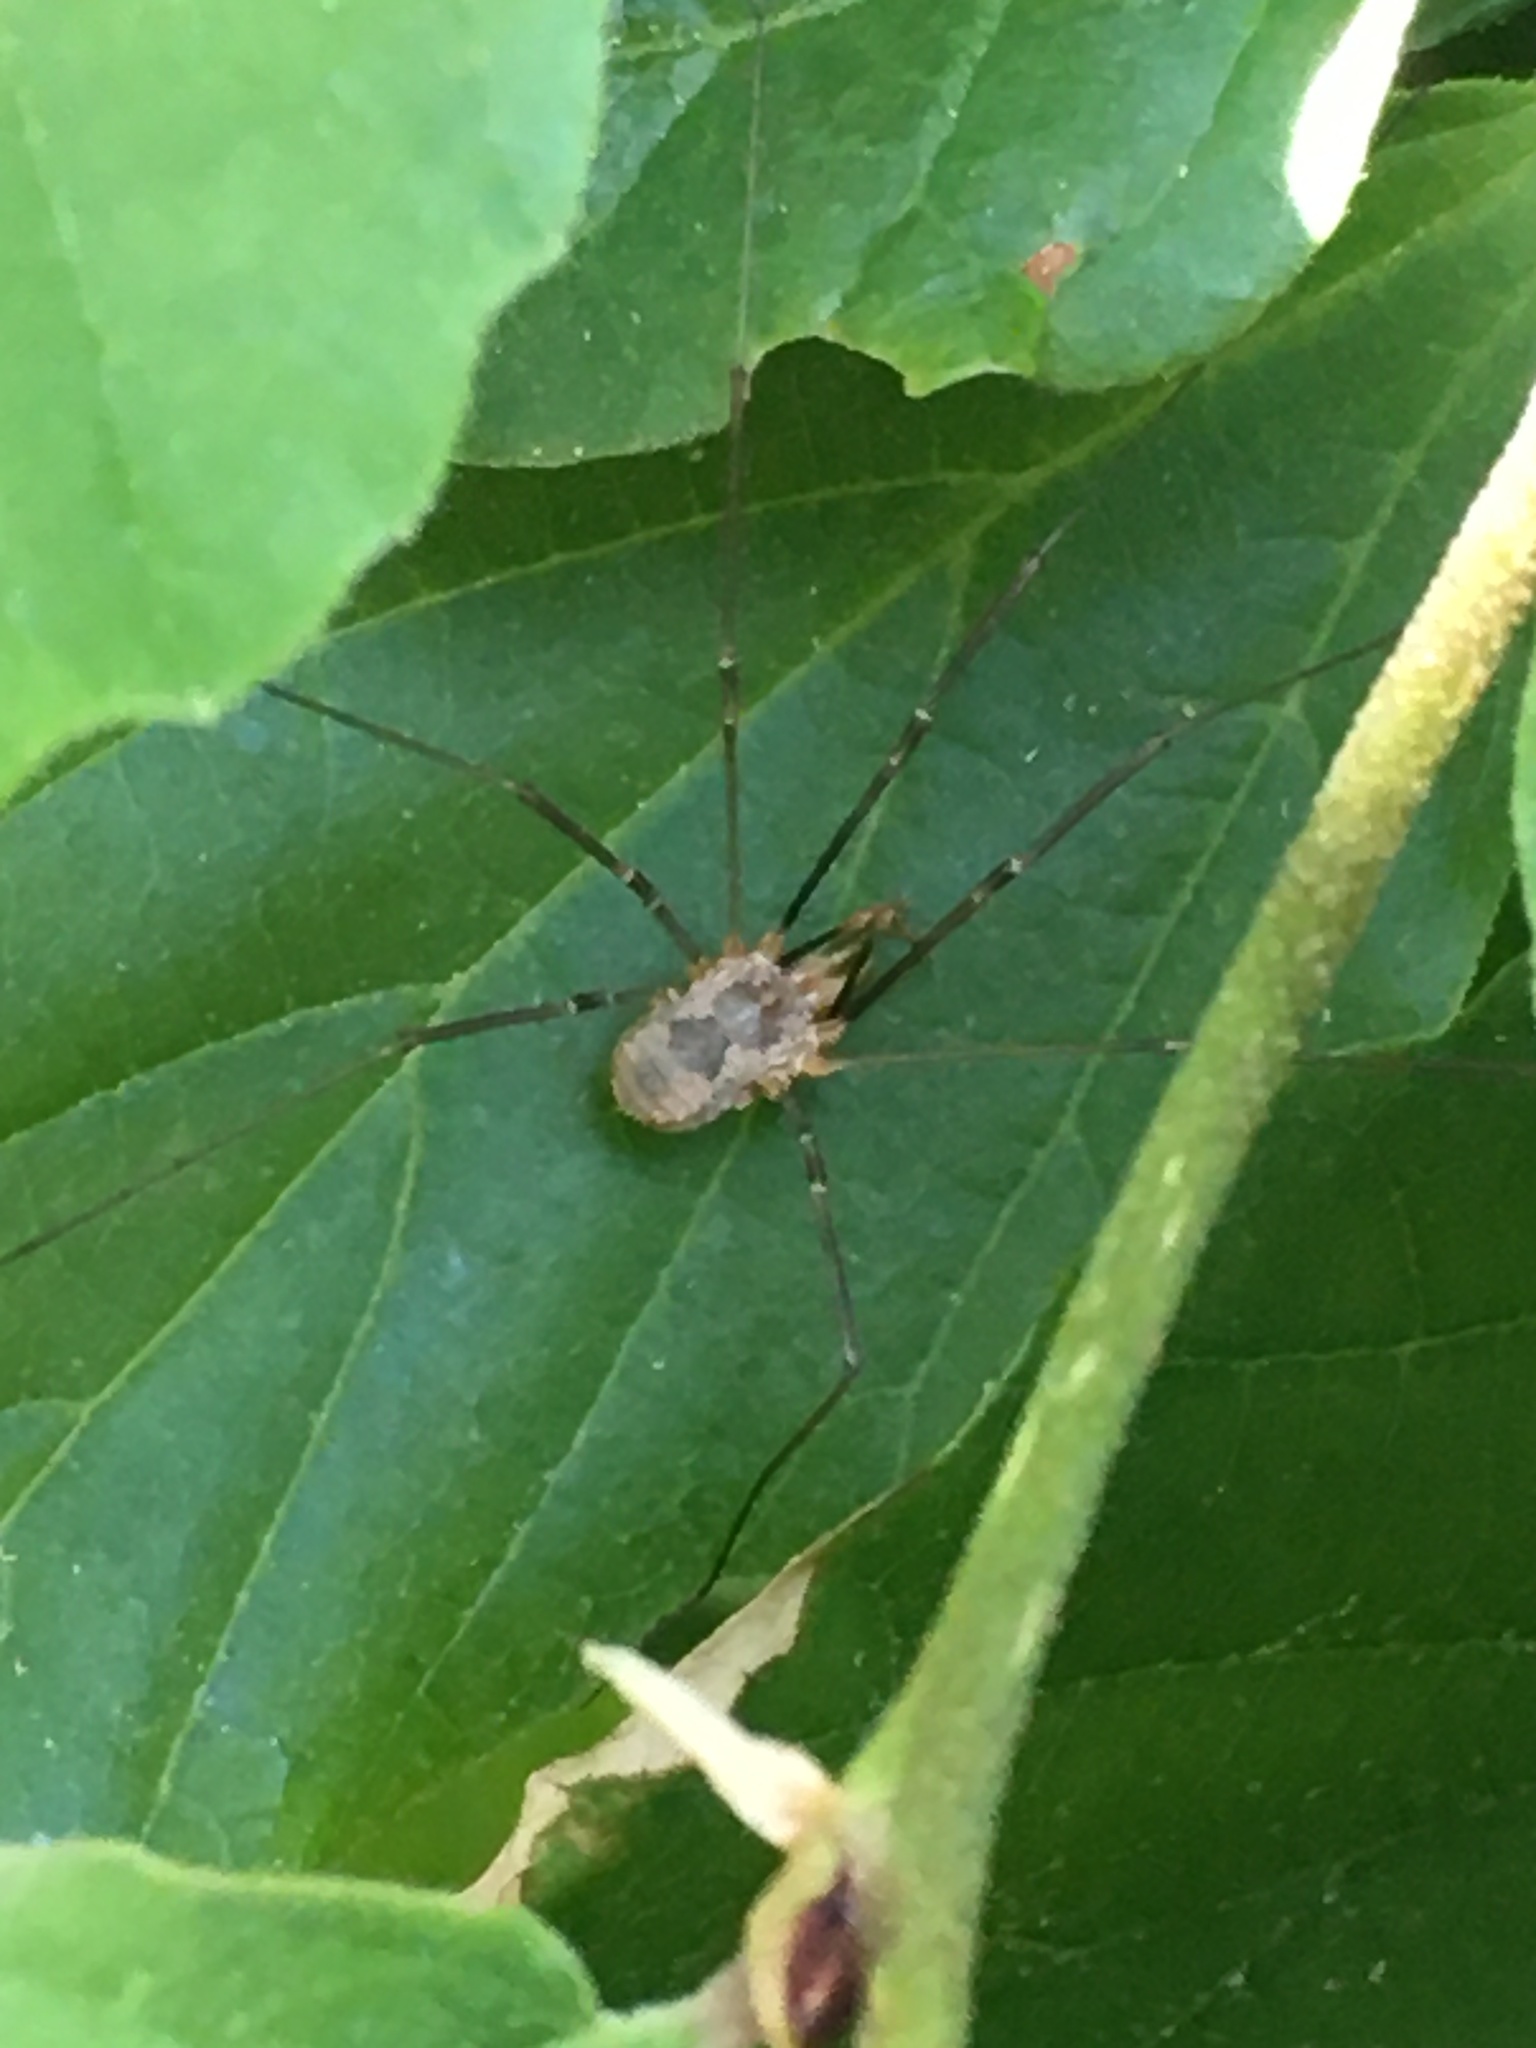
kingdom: Animalia
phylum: Arthropoda
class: Arachnida
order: Opiliones
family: Phalangiidae
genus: Phalangium
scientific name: Phalangium opilio
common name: Daddy longleg
